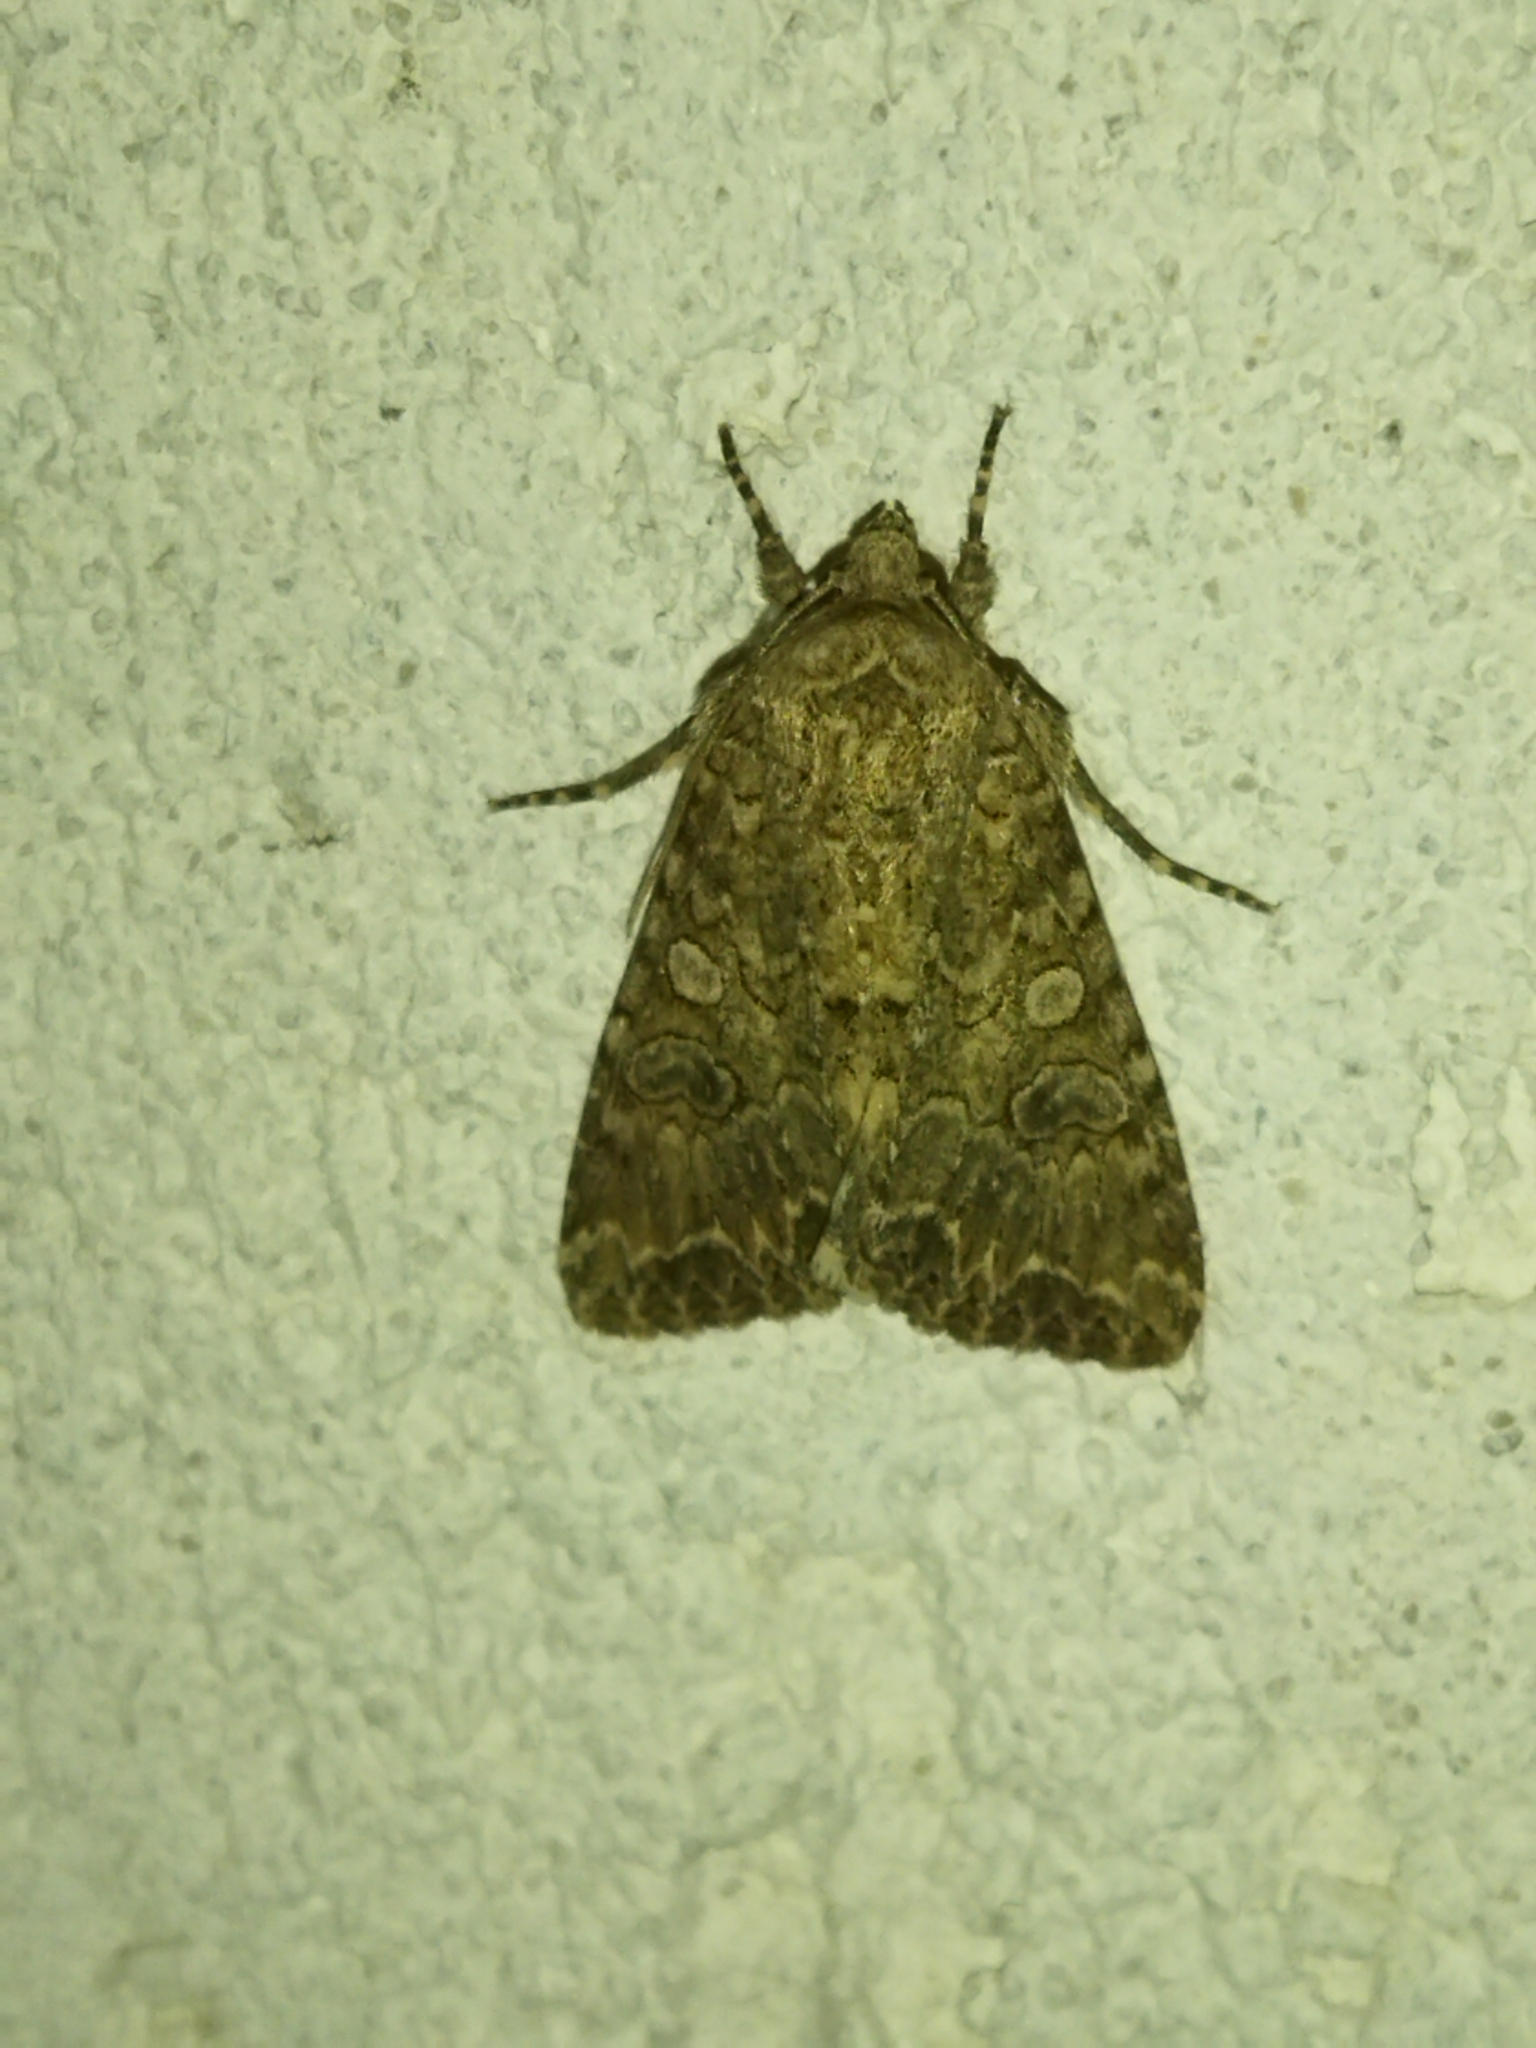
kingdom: Animalia
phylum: Arthropoda
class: Insecta
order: Lepidoptera
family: Noctuidae
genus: Anarta
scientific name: Anarta trifolii
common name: Clover cutworm moth
